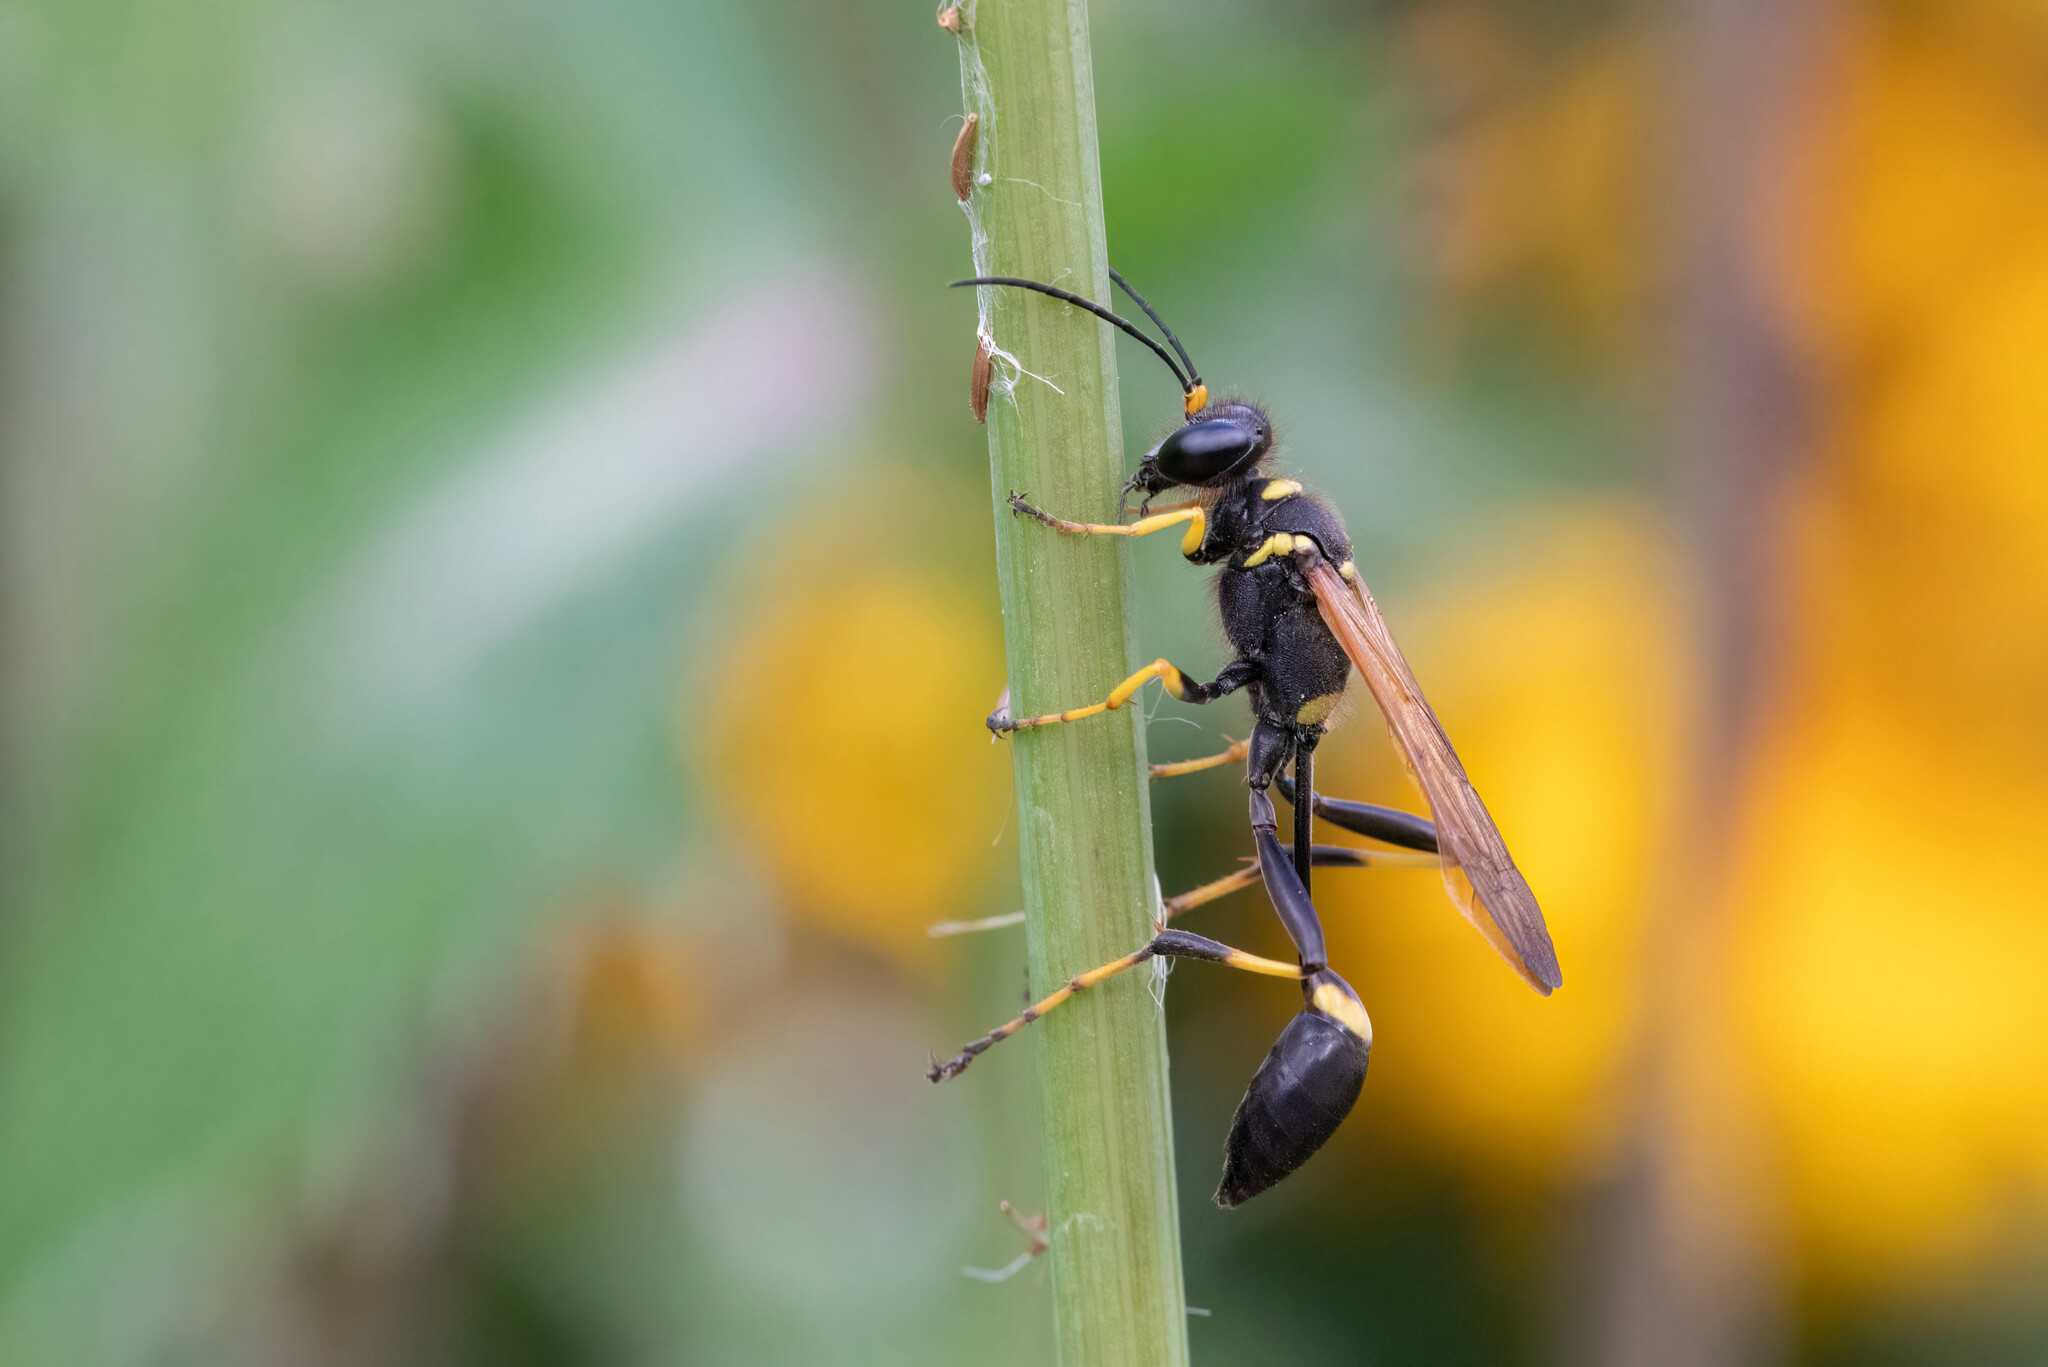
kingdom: Animalia
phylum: Arthropoda
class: Insecta
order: Hymenoptera
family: Sphecidae
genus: Sceliphron
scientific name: Sceliphron caementarium
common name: Mud dauber
